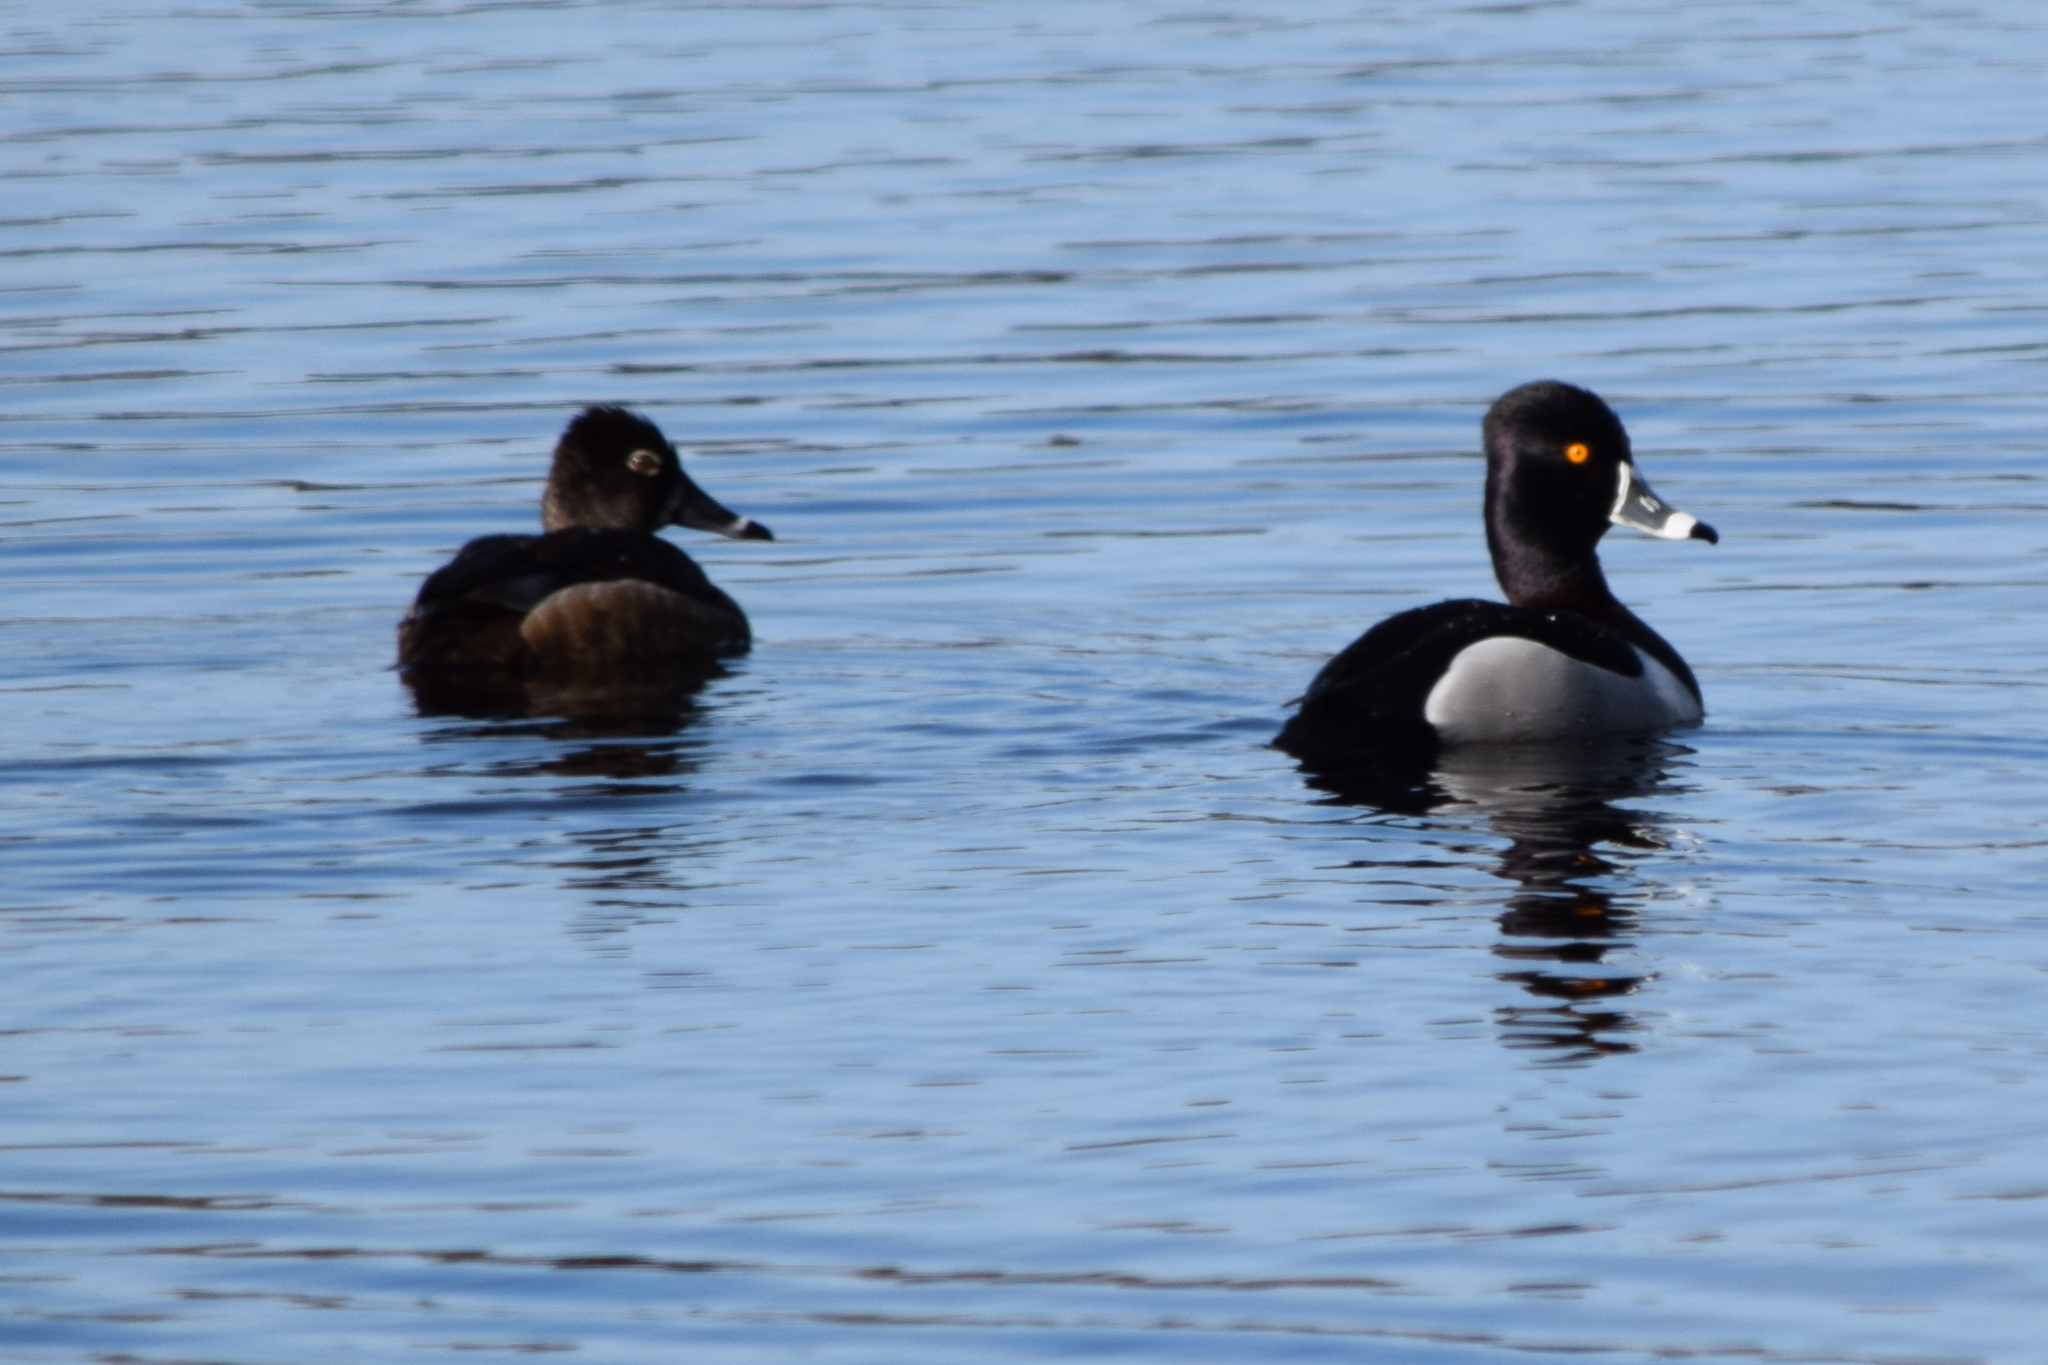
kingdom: Animalia
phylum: Chordata
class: Aves
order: Anseriformes
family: Anatidae
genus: Aythya
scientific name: Aythya collaris
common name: Ring-necked duck
